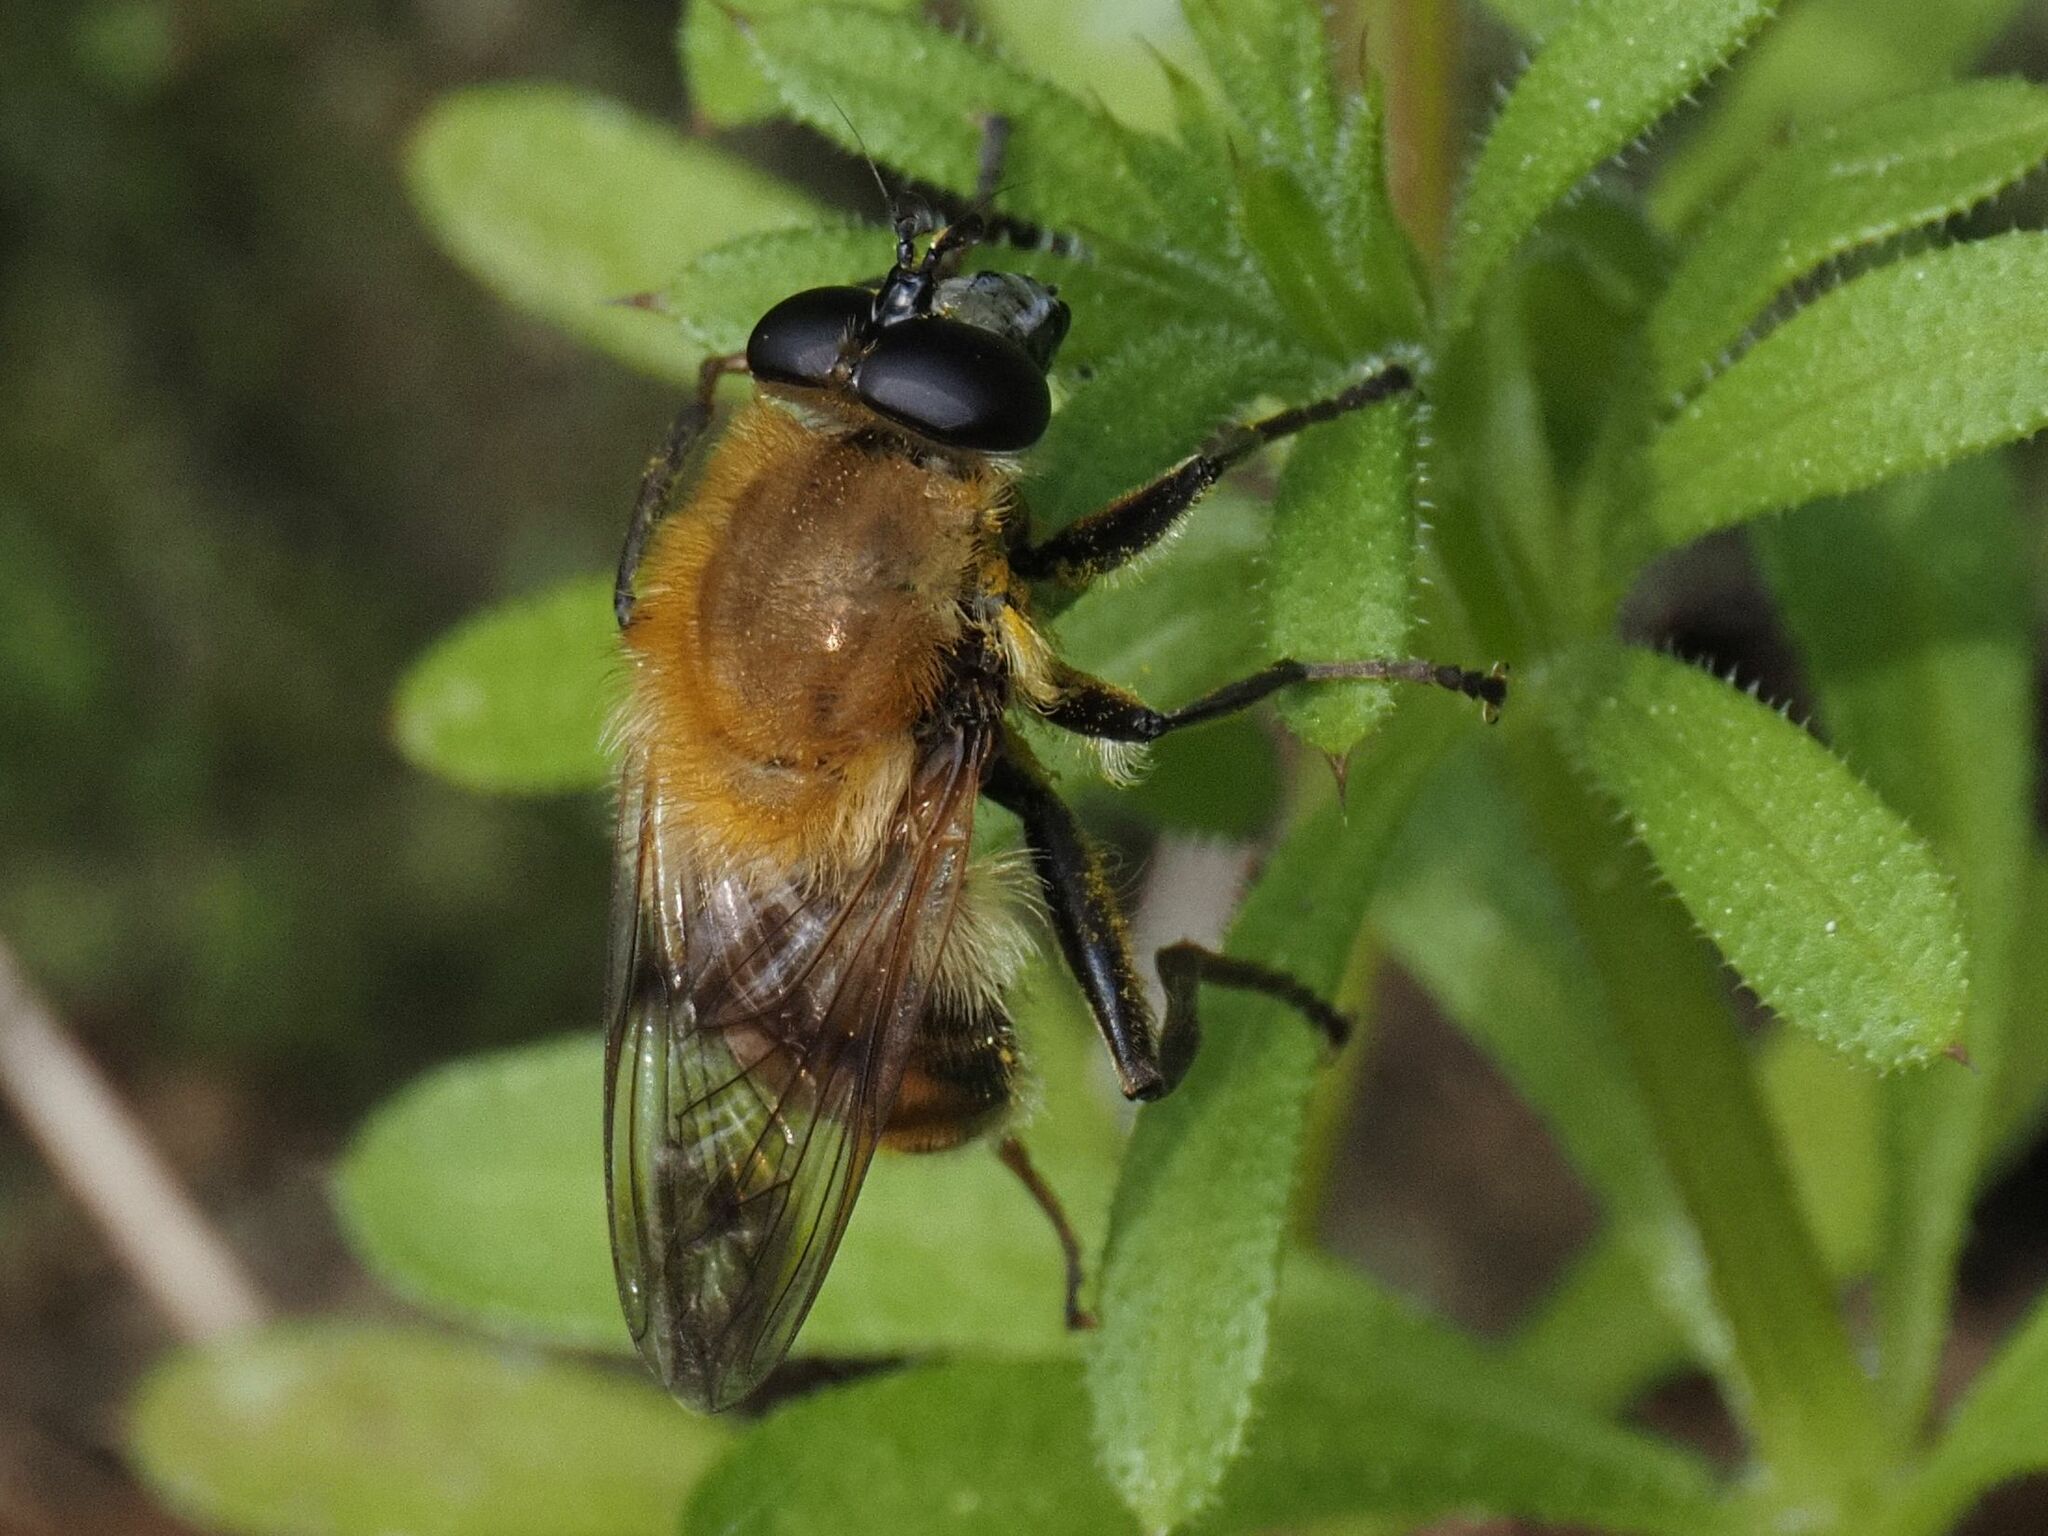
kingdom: Animalia
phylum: Arthropoda
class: Insecta
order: Diptera
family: Syrphidae
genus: Criorhina
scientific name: Criorhina floccosa
